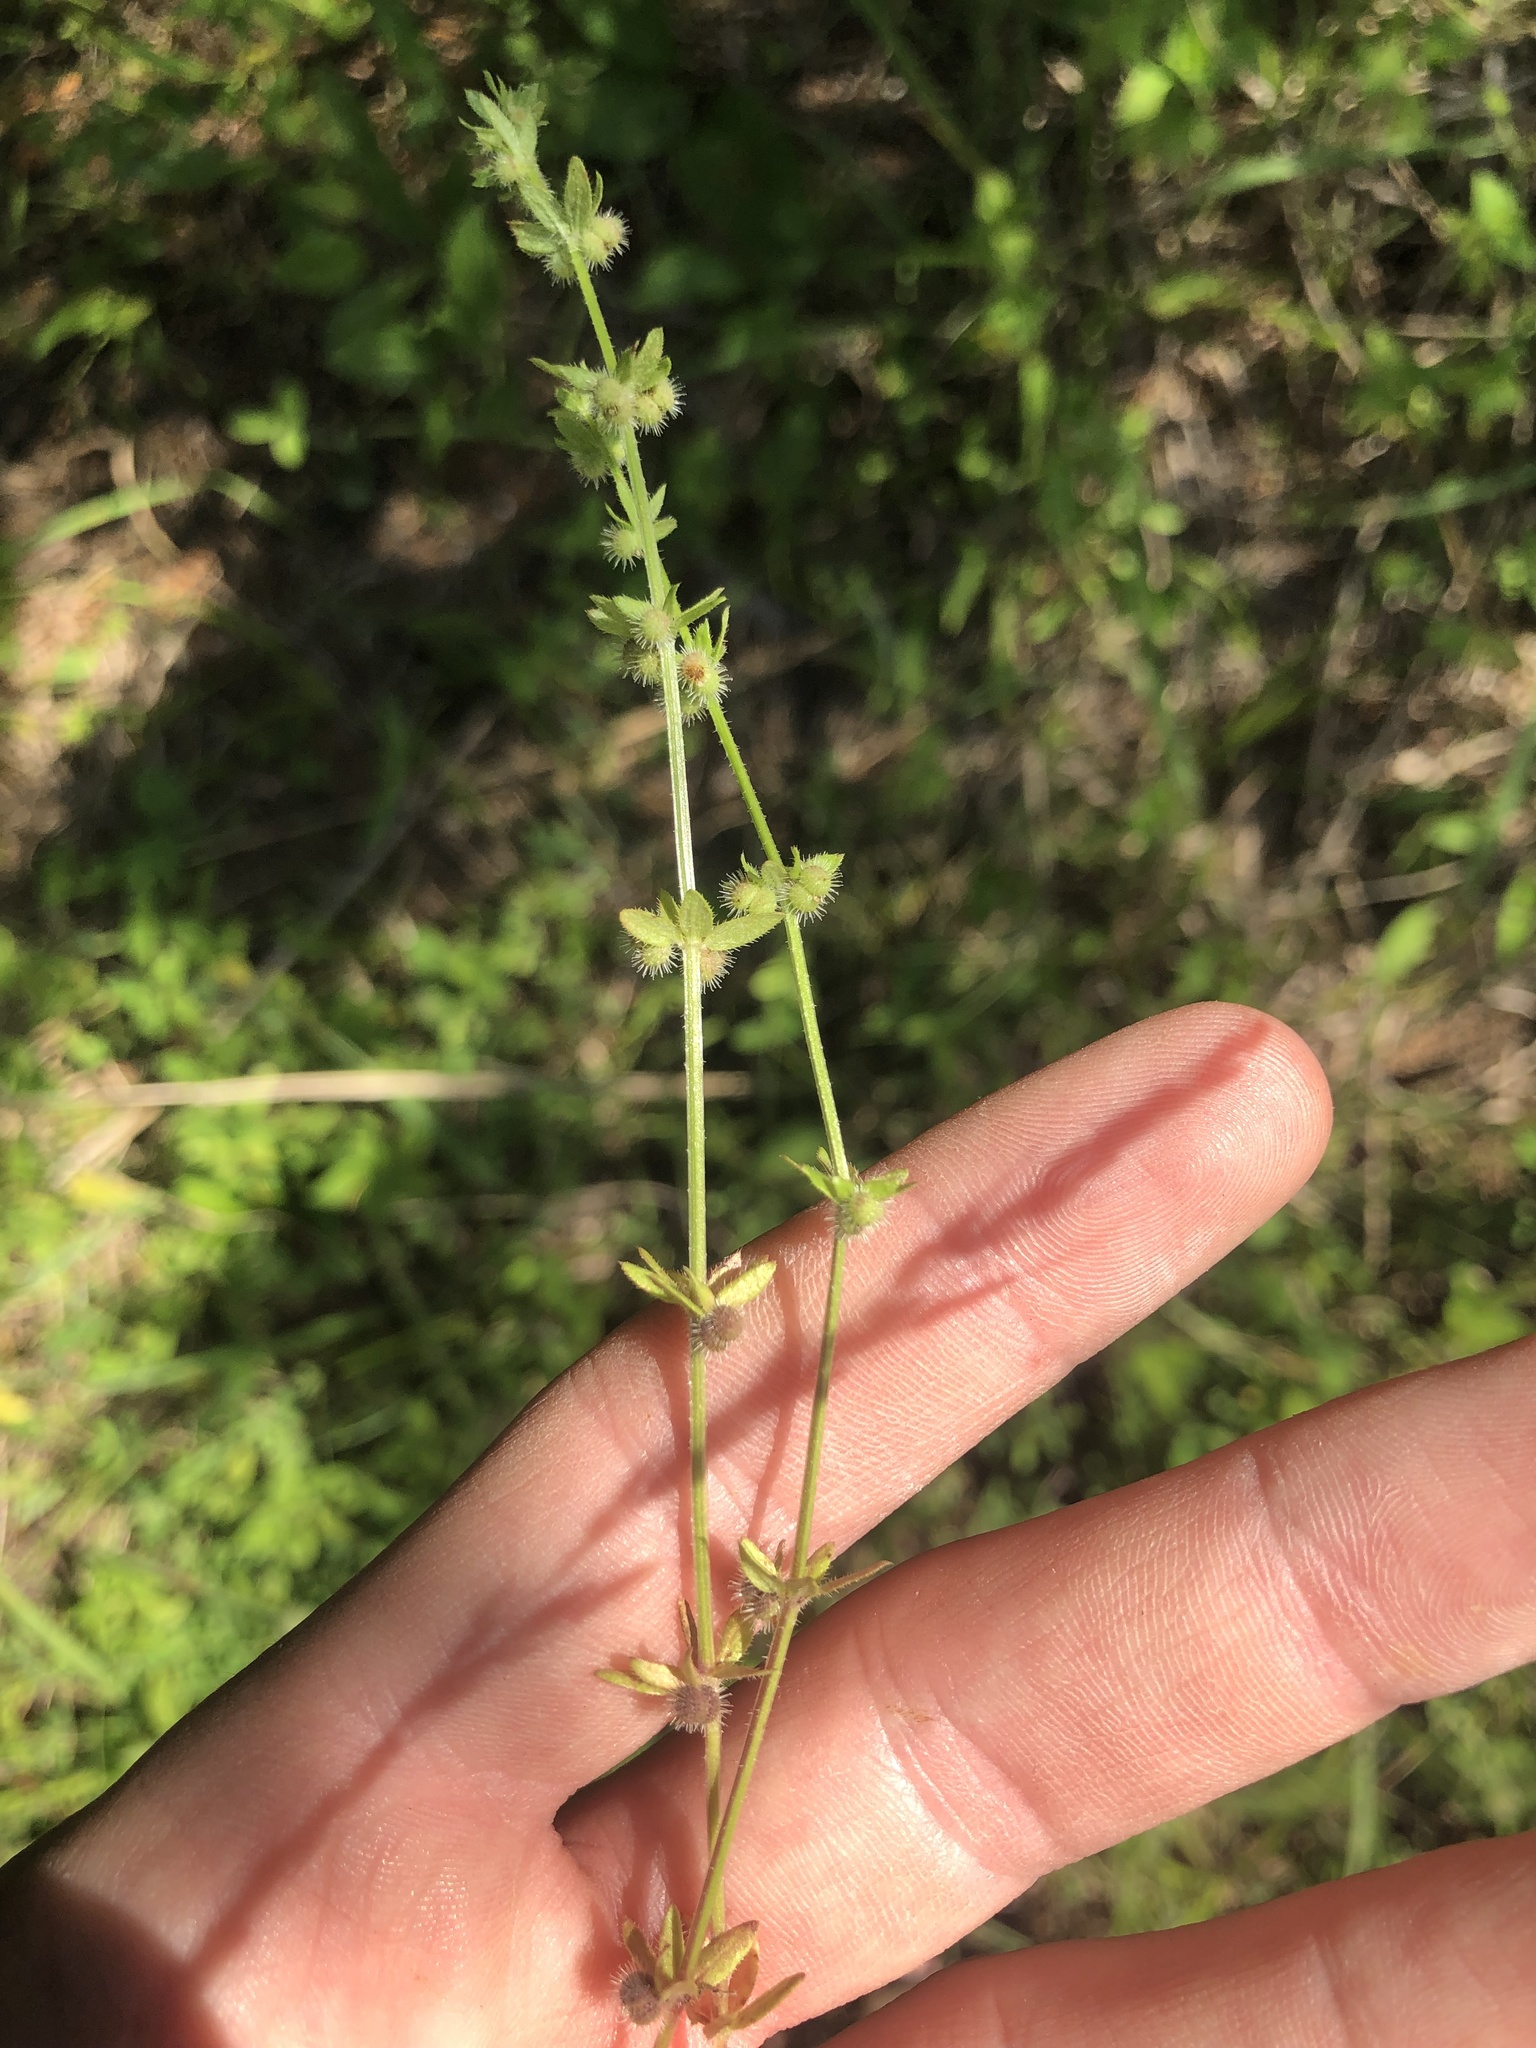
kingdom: Plantae
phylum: Tracheophyta
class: Magnoliopsida
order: Gentianales
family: Rubiaceae
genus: Galium
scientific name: Galium virgatum
